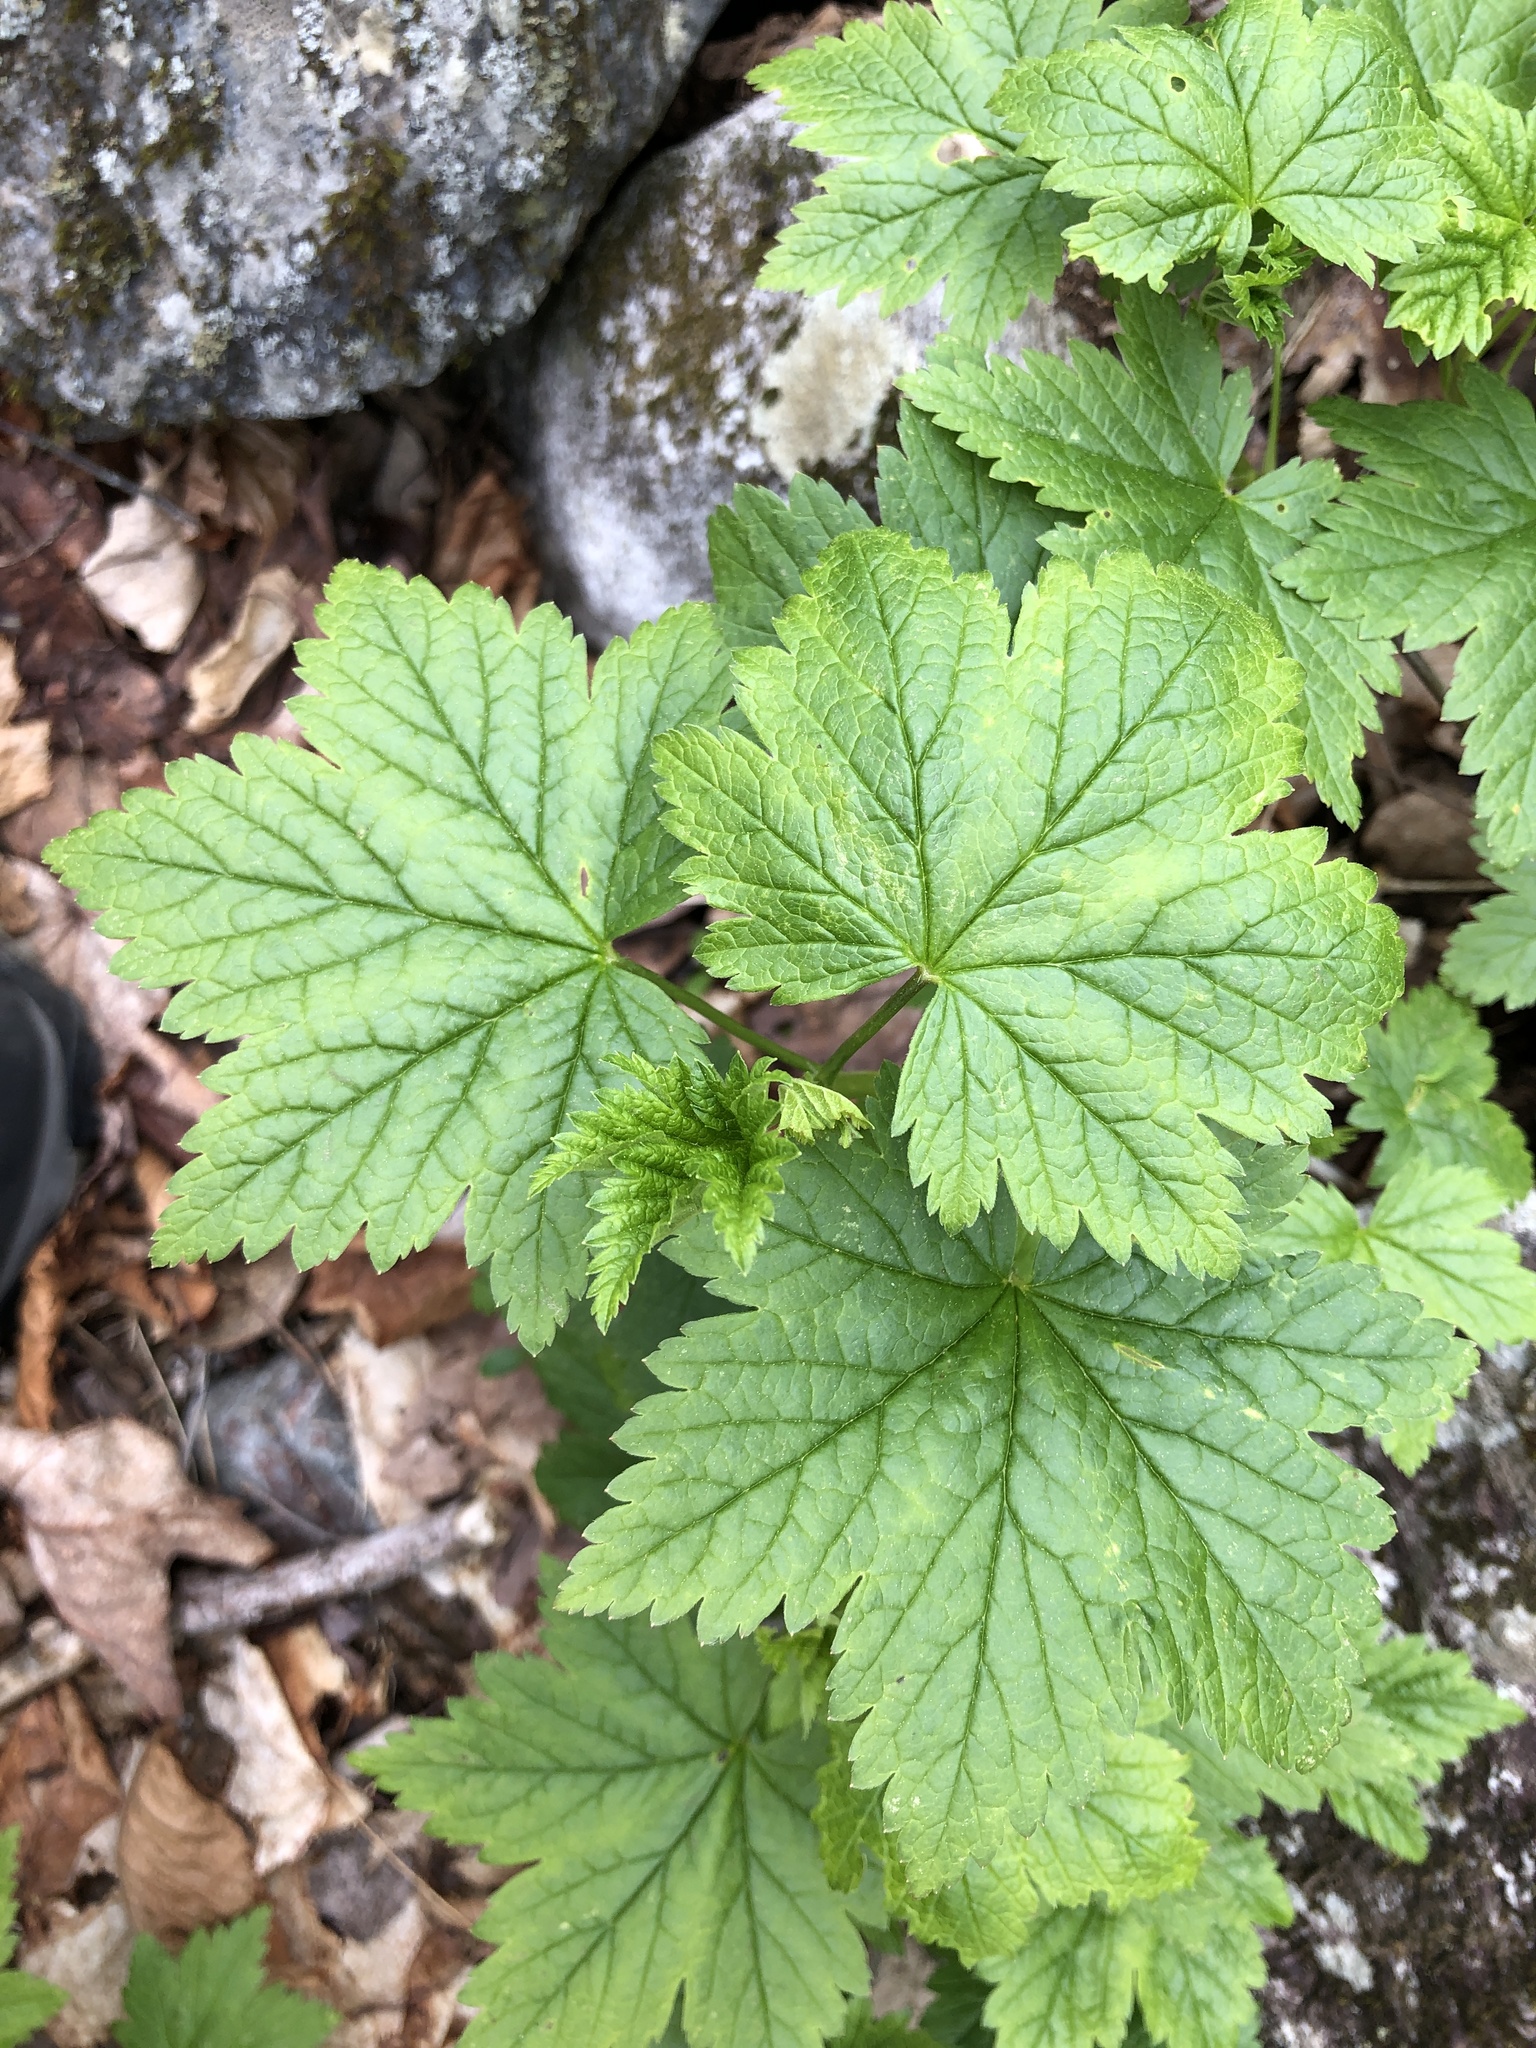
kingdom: Plantae
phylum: Tracheophyta
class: Magnoliopsida
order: Saxifragales
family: Grossulariaceae
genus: Ribes
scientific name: Ribes glandulosum
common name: Skunk currant
